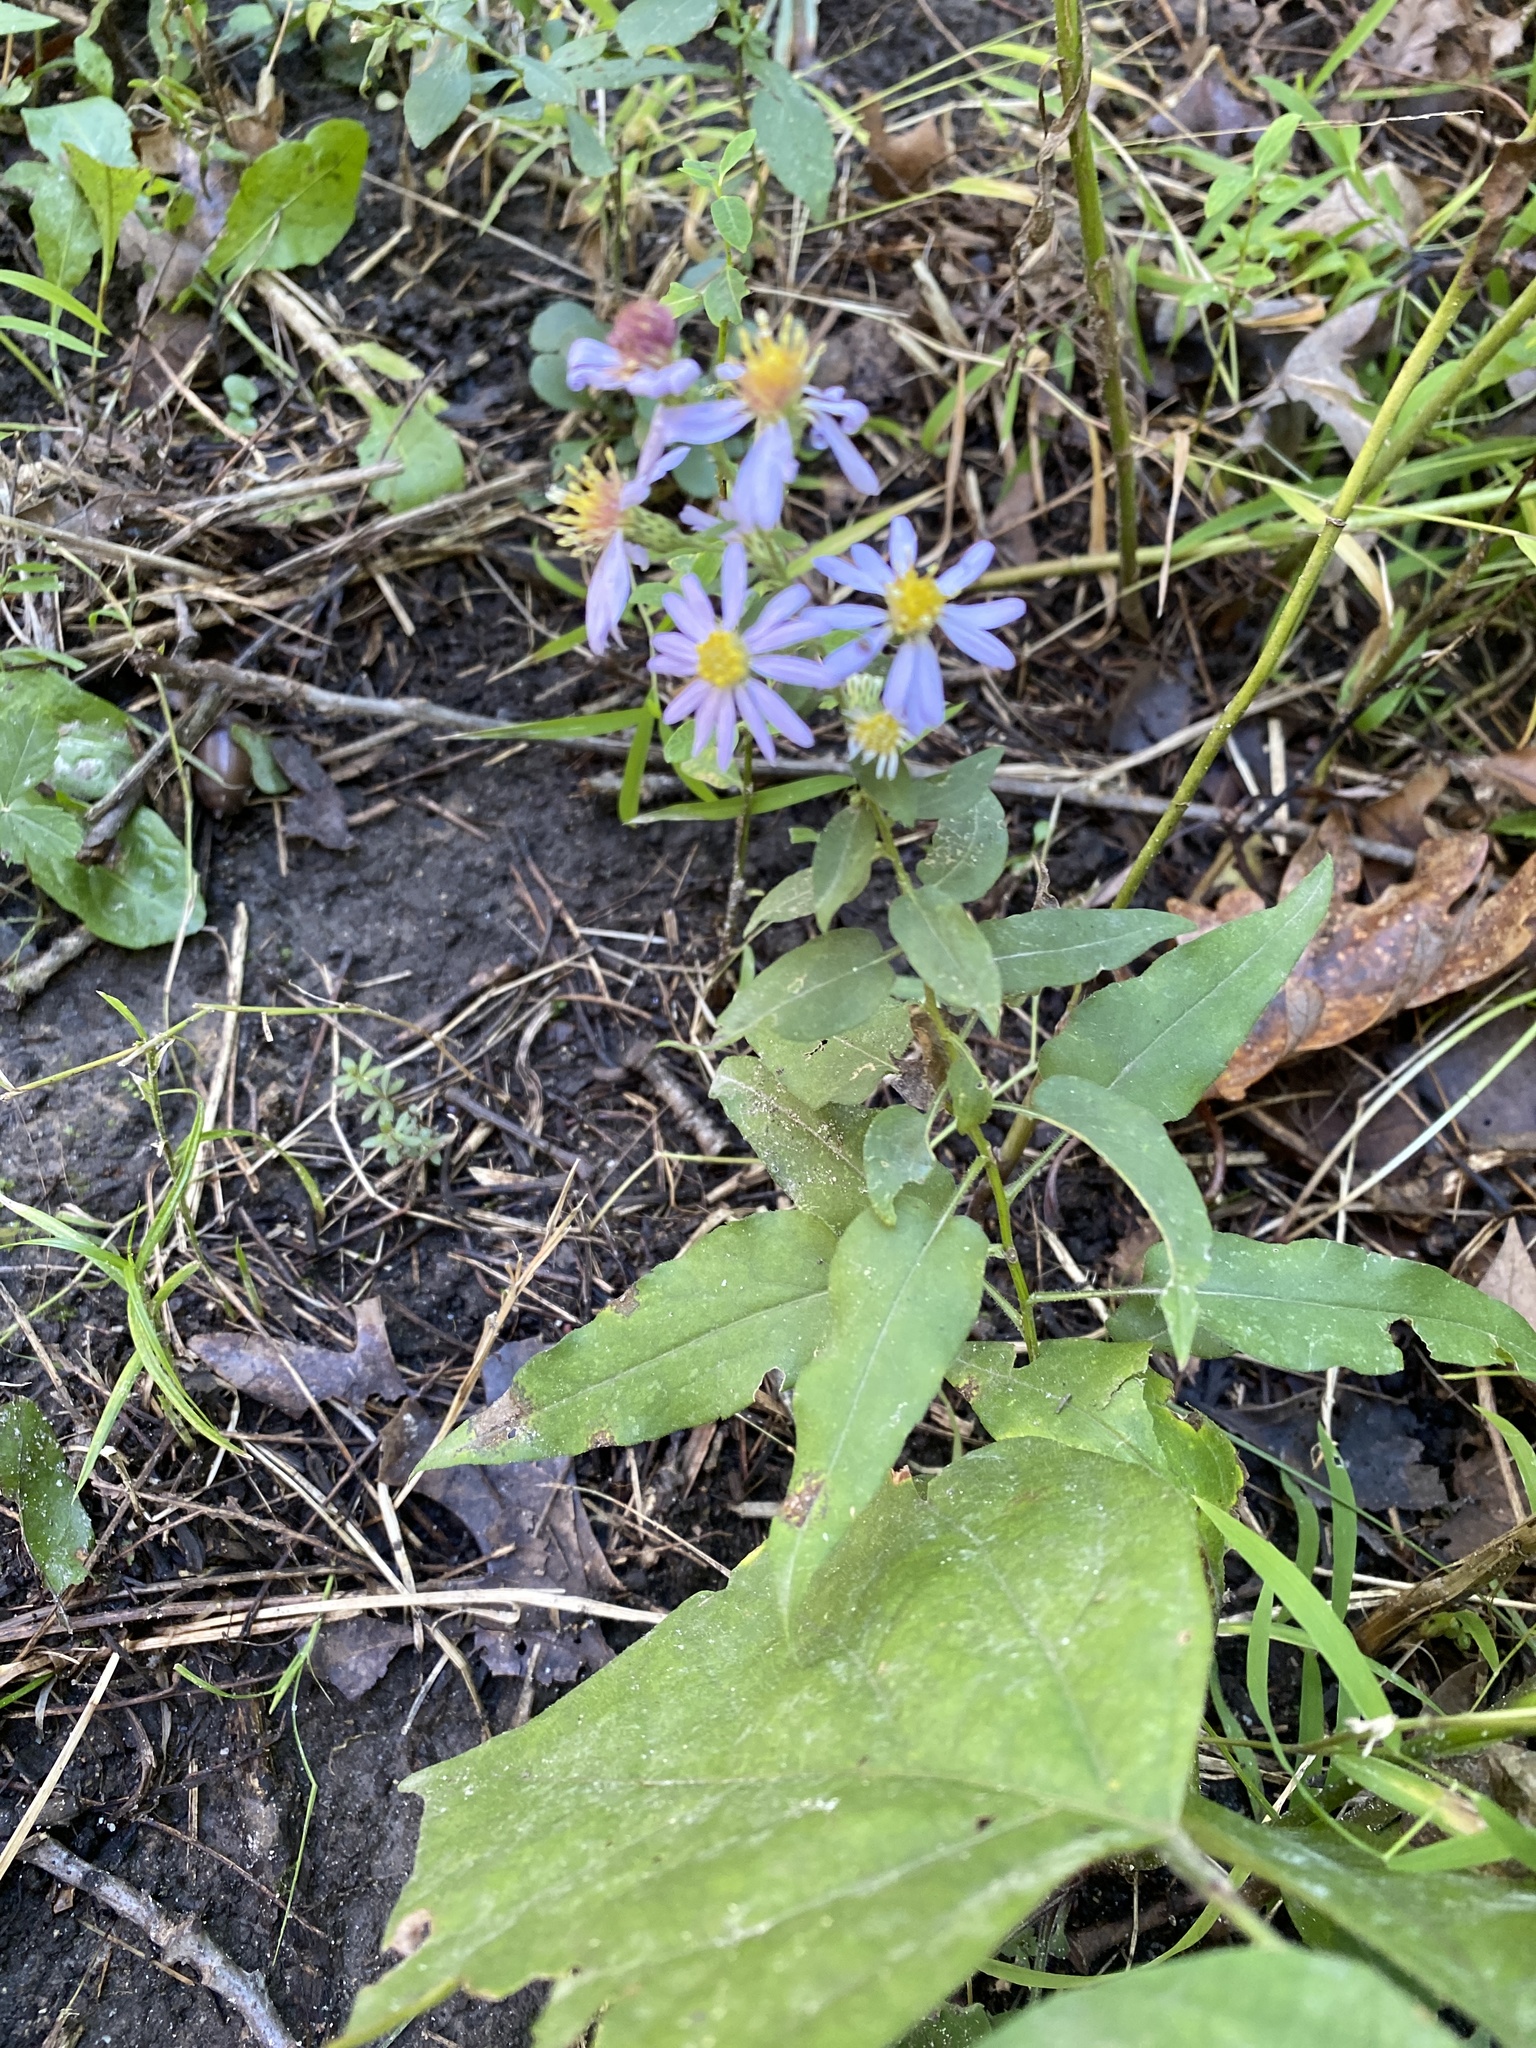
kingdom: Plantae
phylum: Tracheophyta
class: Magnoliopsida
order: Asterales
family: Asteraceae
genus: Symphyotrichum
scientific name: Symphyotrichum shortii
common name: Short's aster
